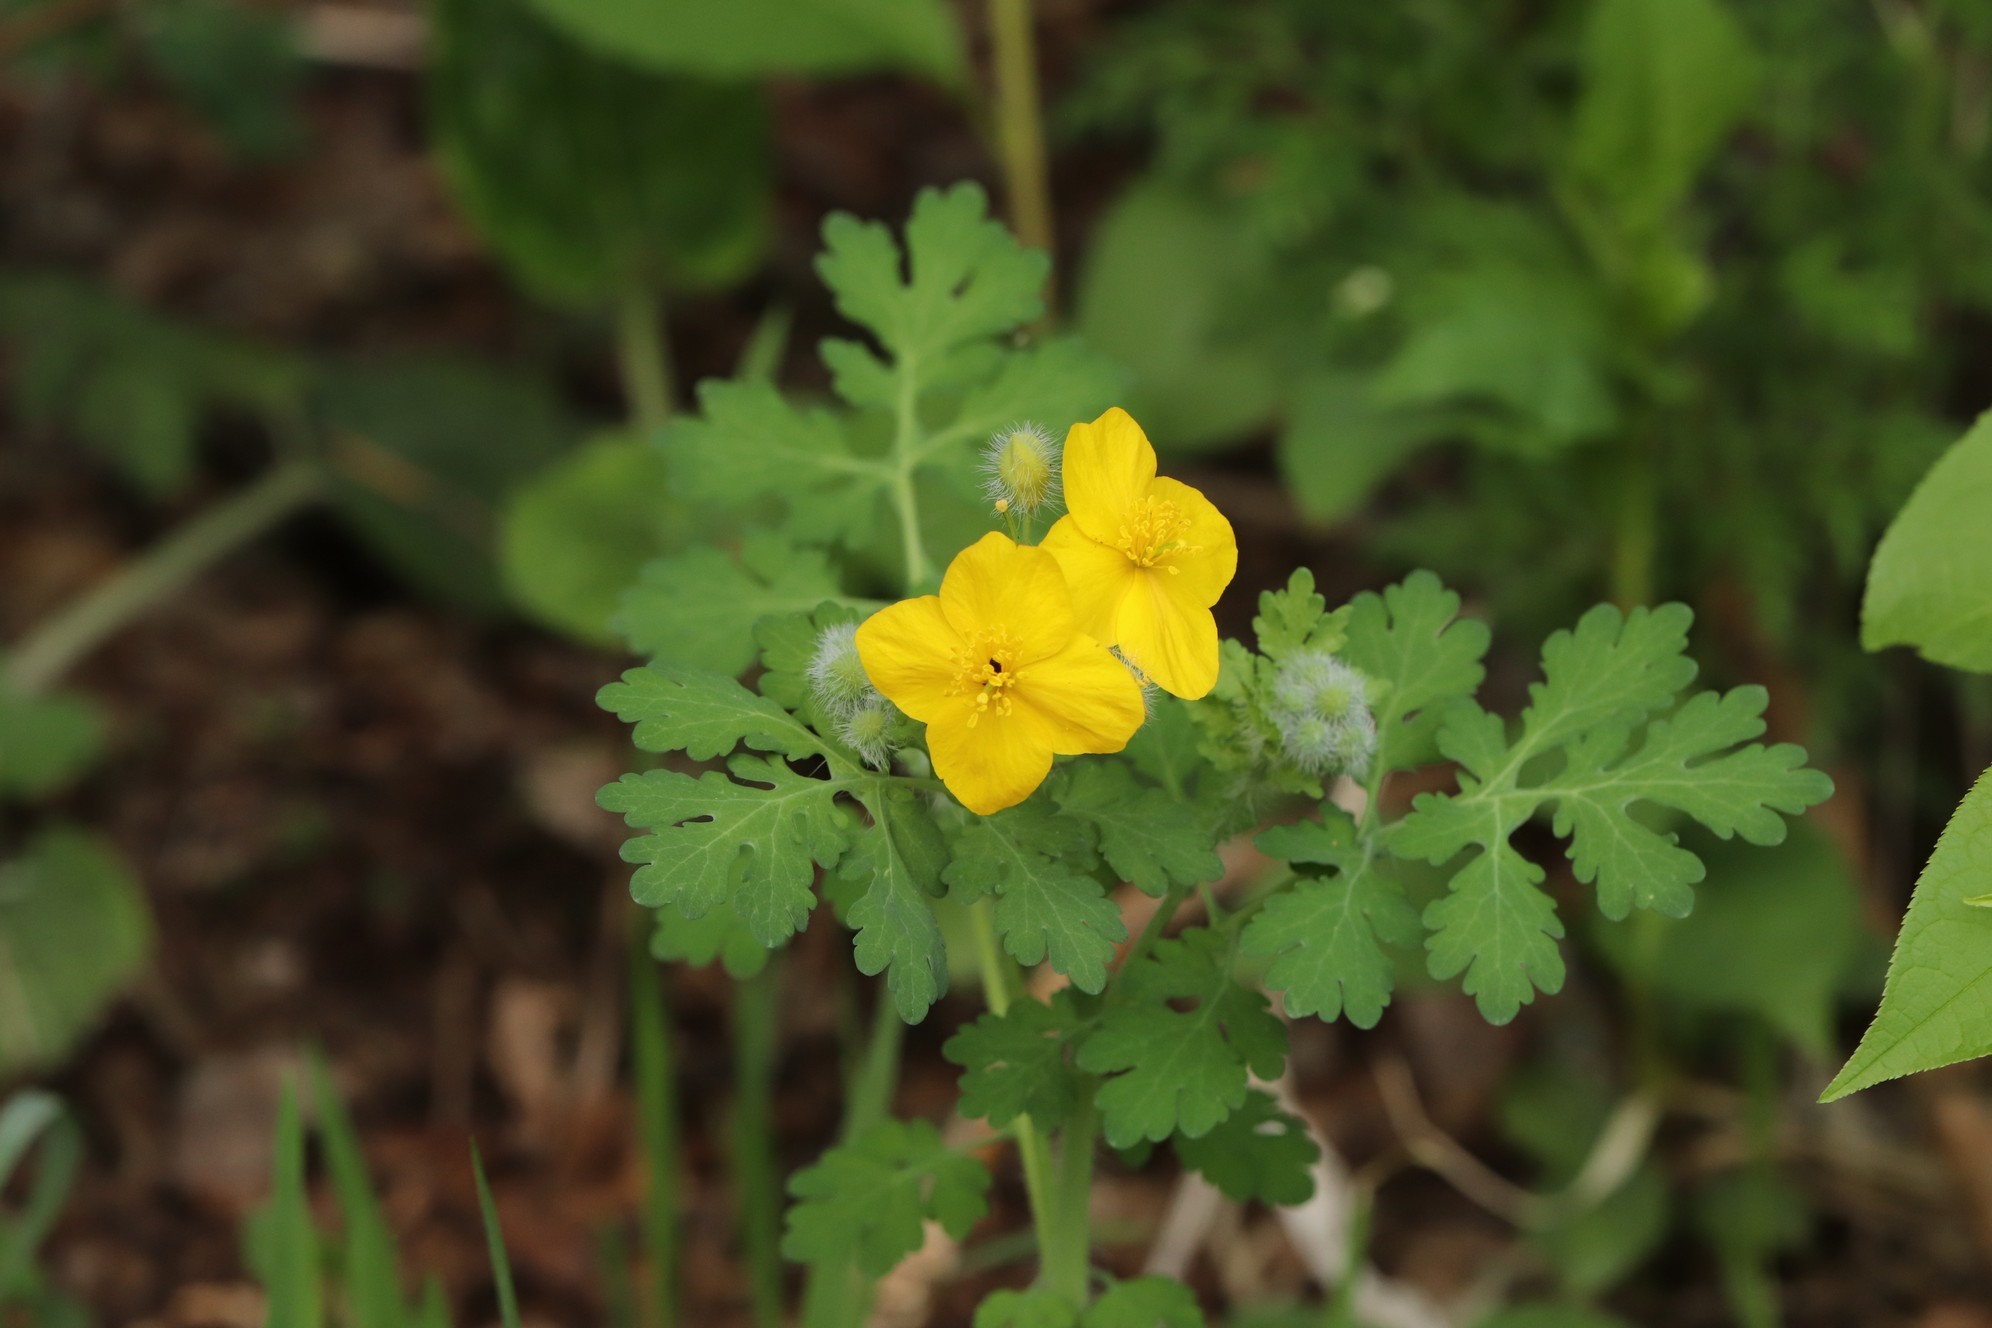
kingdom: Plantae
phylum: Tracheophyta
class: Magnoliopsida
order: Ranunculales
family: Papaveraceae
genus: Chelidonium
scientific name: Chelidonium majus
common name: Greater celandine
